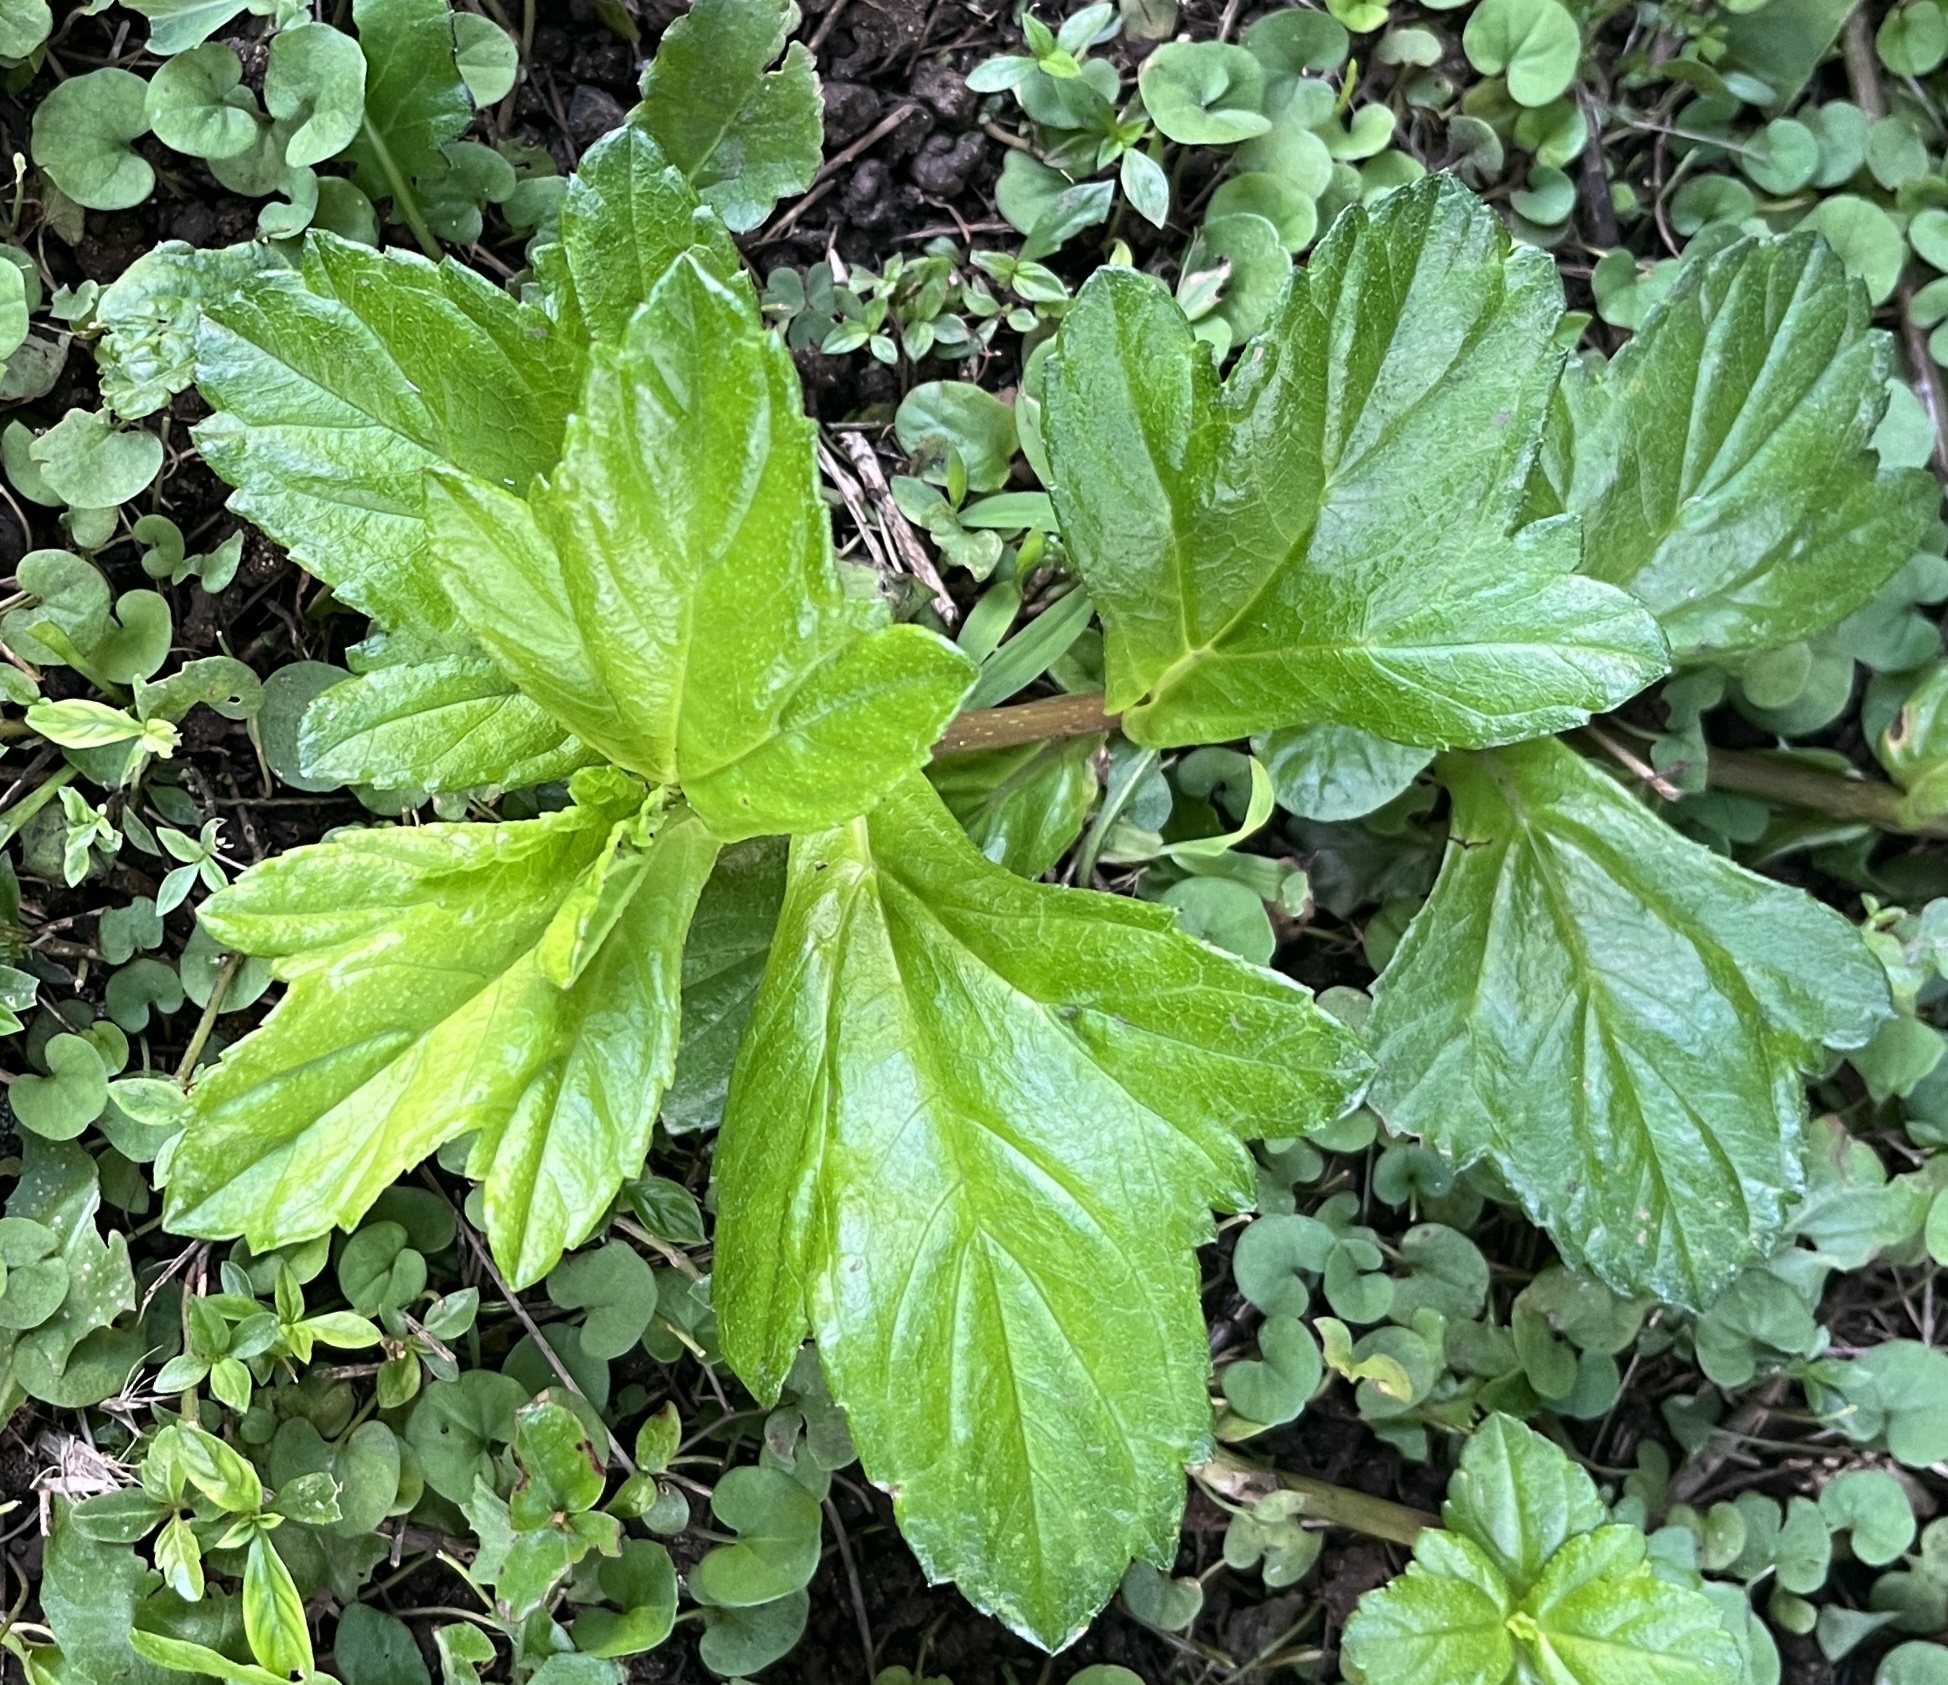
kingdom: Plantae
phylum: Tracheophyta
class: Magnoliopsida
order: Asterales
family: Asteraceae
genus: Sphagneticola
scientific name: Sphagneticola trilobata
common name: Bay biscayne creeping-oxeye
